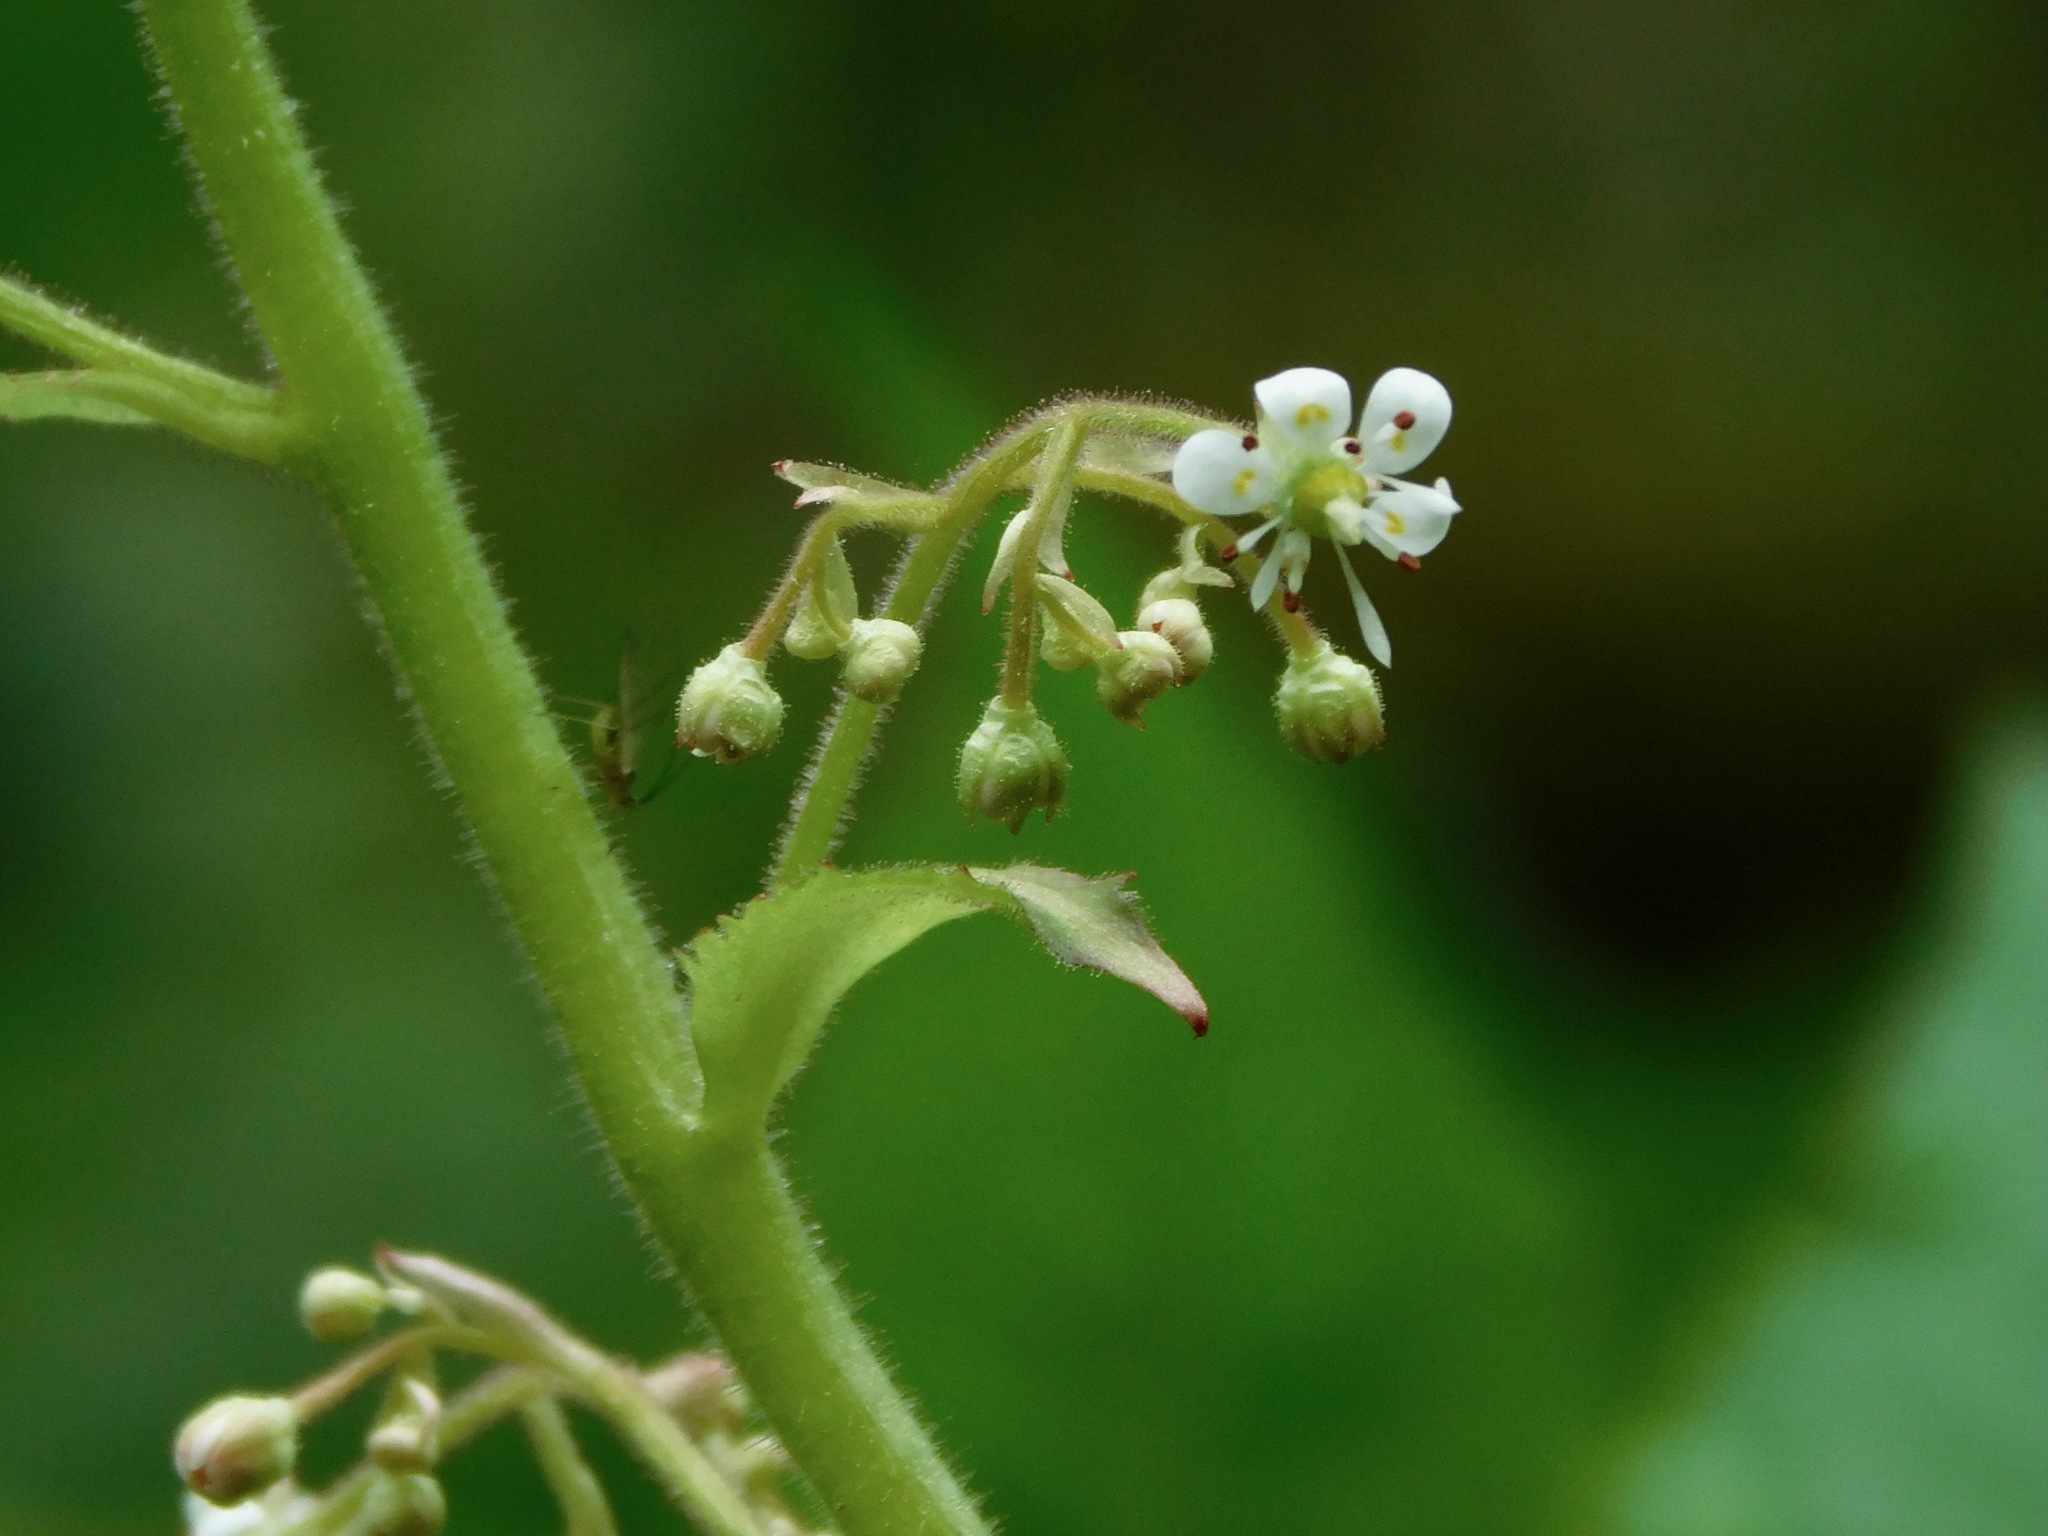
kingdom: Plantae
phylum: Tracheophyta
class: Magnoliopsida
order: Saxifragales
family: Saxifragaceae
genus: Micranthes
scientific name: Micranthes micranthidifolia
